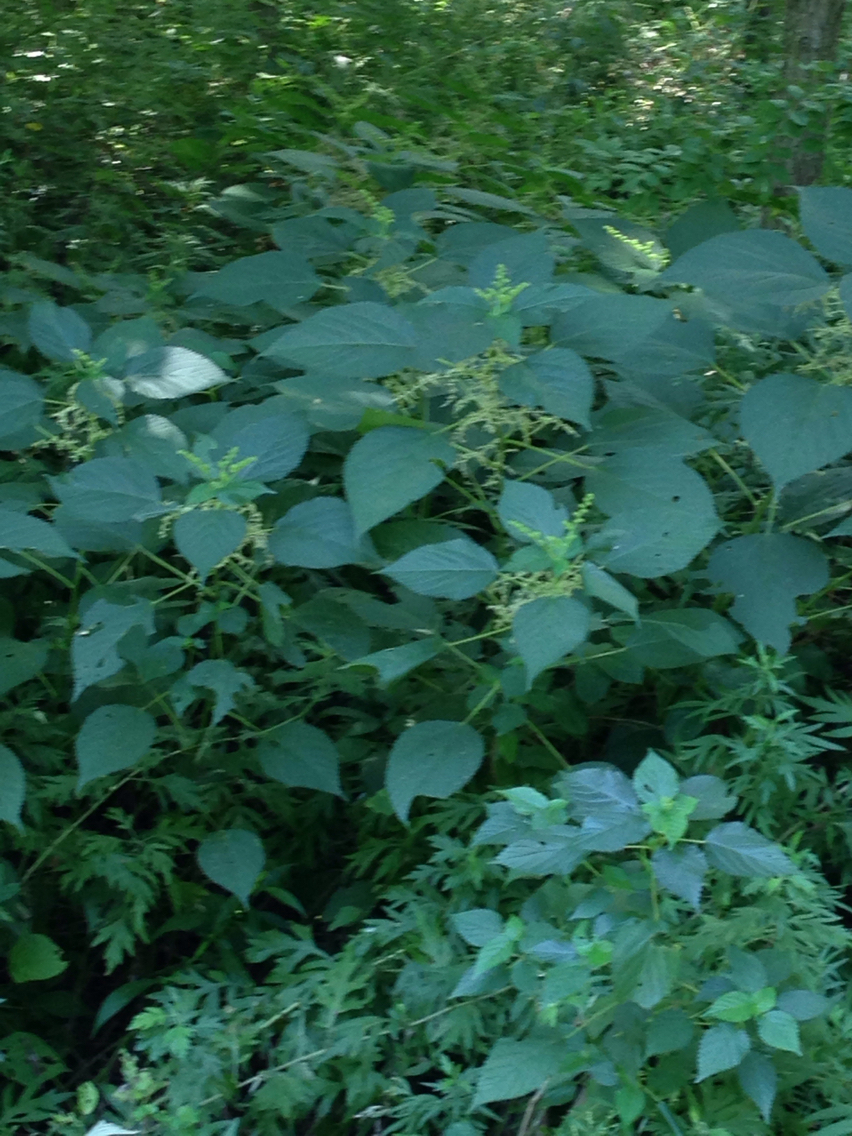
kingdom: Plantae
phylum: Tracheophyta
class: Magnoliopsida
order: Rosales
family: Urticaceae
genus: Laportea
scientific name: Laportea canadensis
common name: Canada nettle
